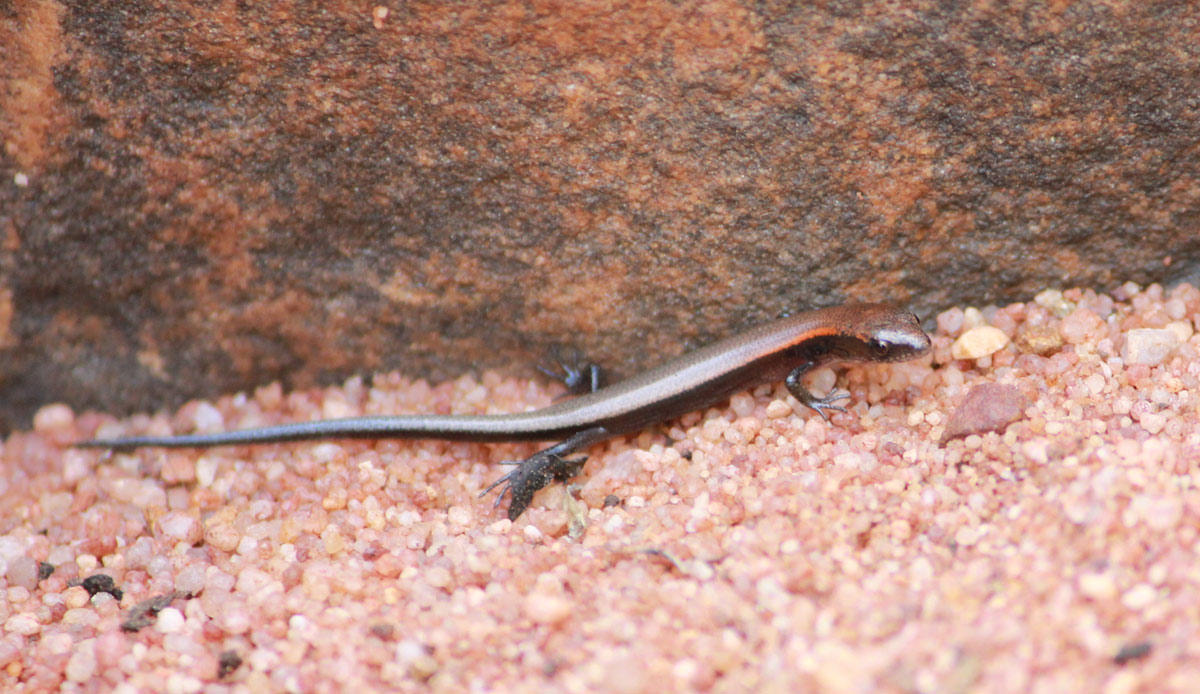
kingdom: Animalia
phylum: Chordata
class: Squamata
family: Scincidae
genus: Panaspis
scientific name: Panaspis maculicollis
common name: Spotted-neck snake-eyed skink
